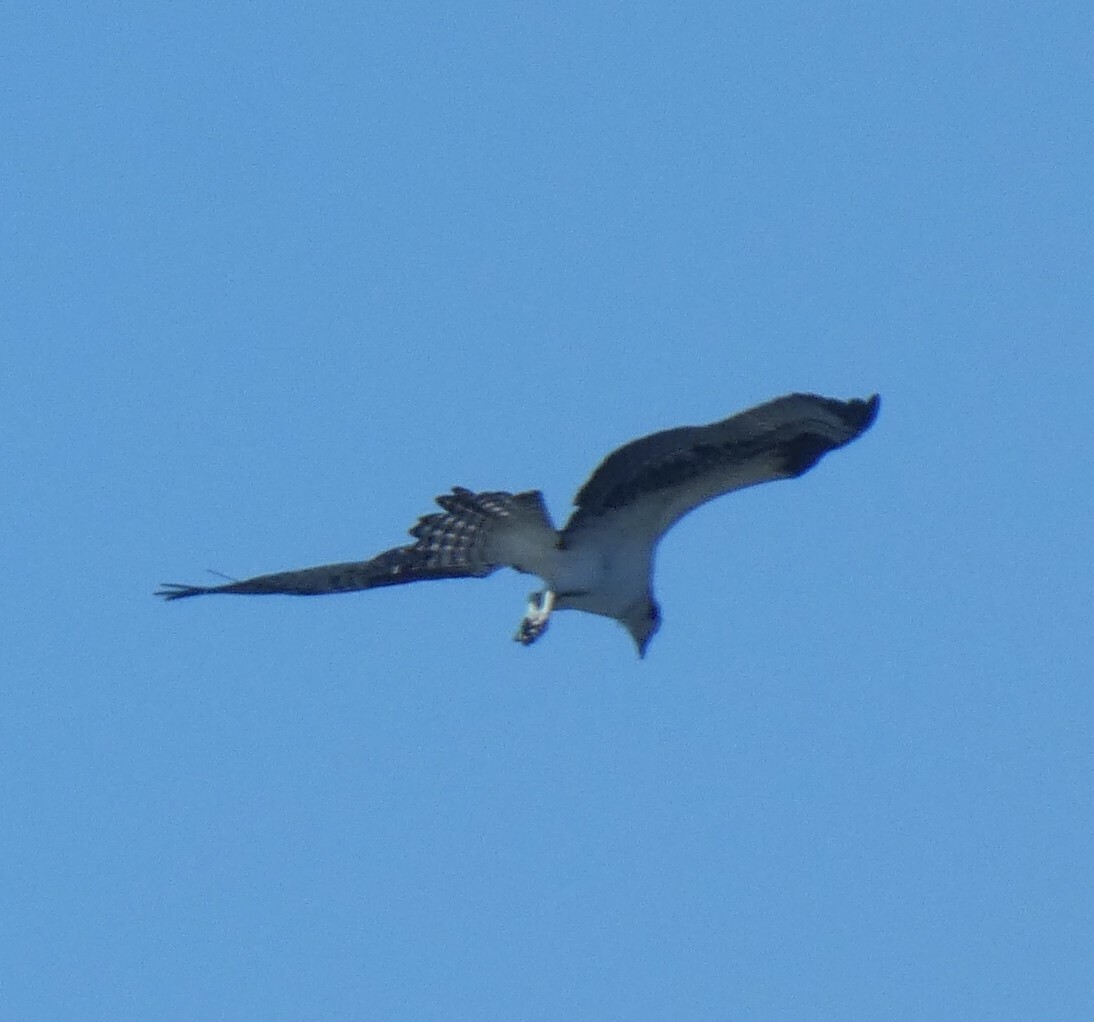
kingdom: Animalia
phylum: Chordata
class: Aves
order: Accipitriformes
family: Pandionidae
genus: Pandion
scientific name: Pandion haliaetus
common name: Osprey
